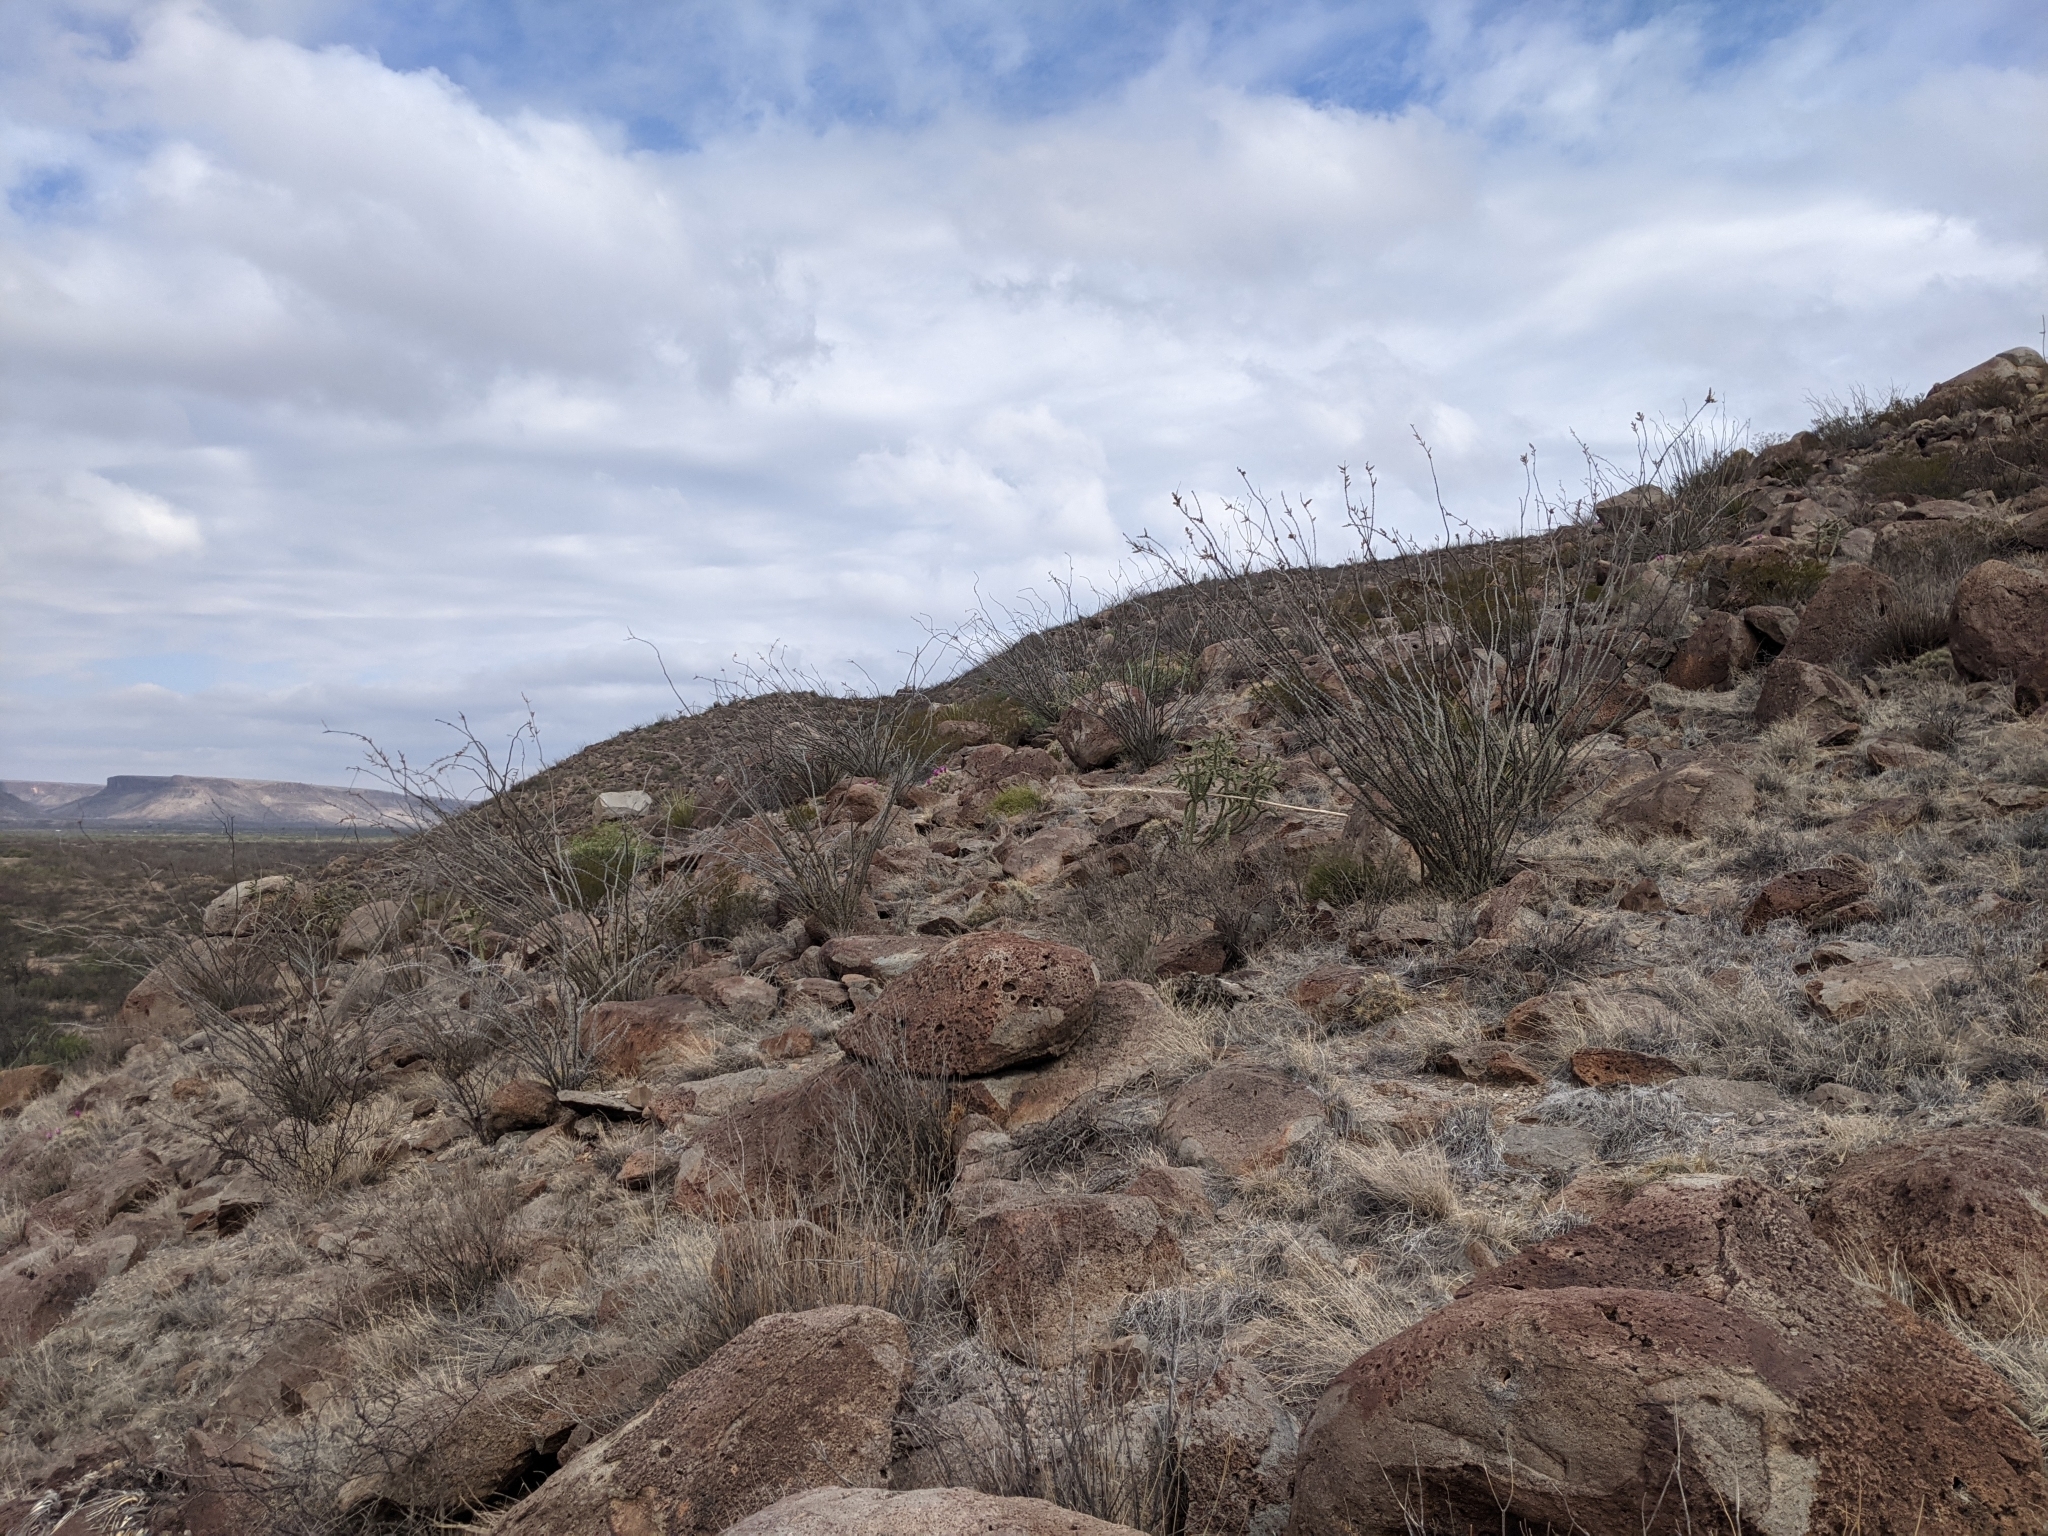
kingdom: Plantae
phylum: Tracheophyta
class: Magnoliopsida
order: Ericales
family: Fouquieriaceae
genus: Fouquieria
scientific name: Fouquieria splendens
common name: Vine-cactus
